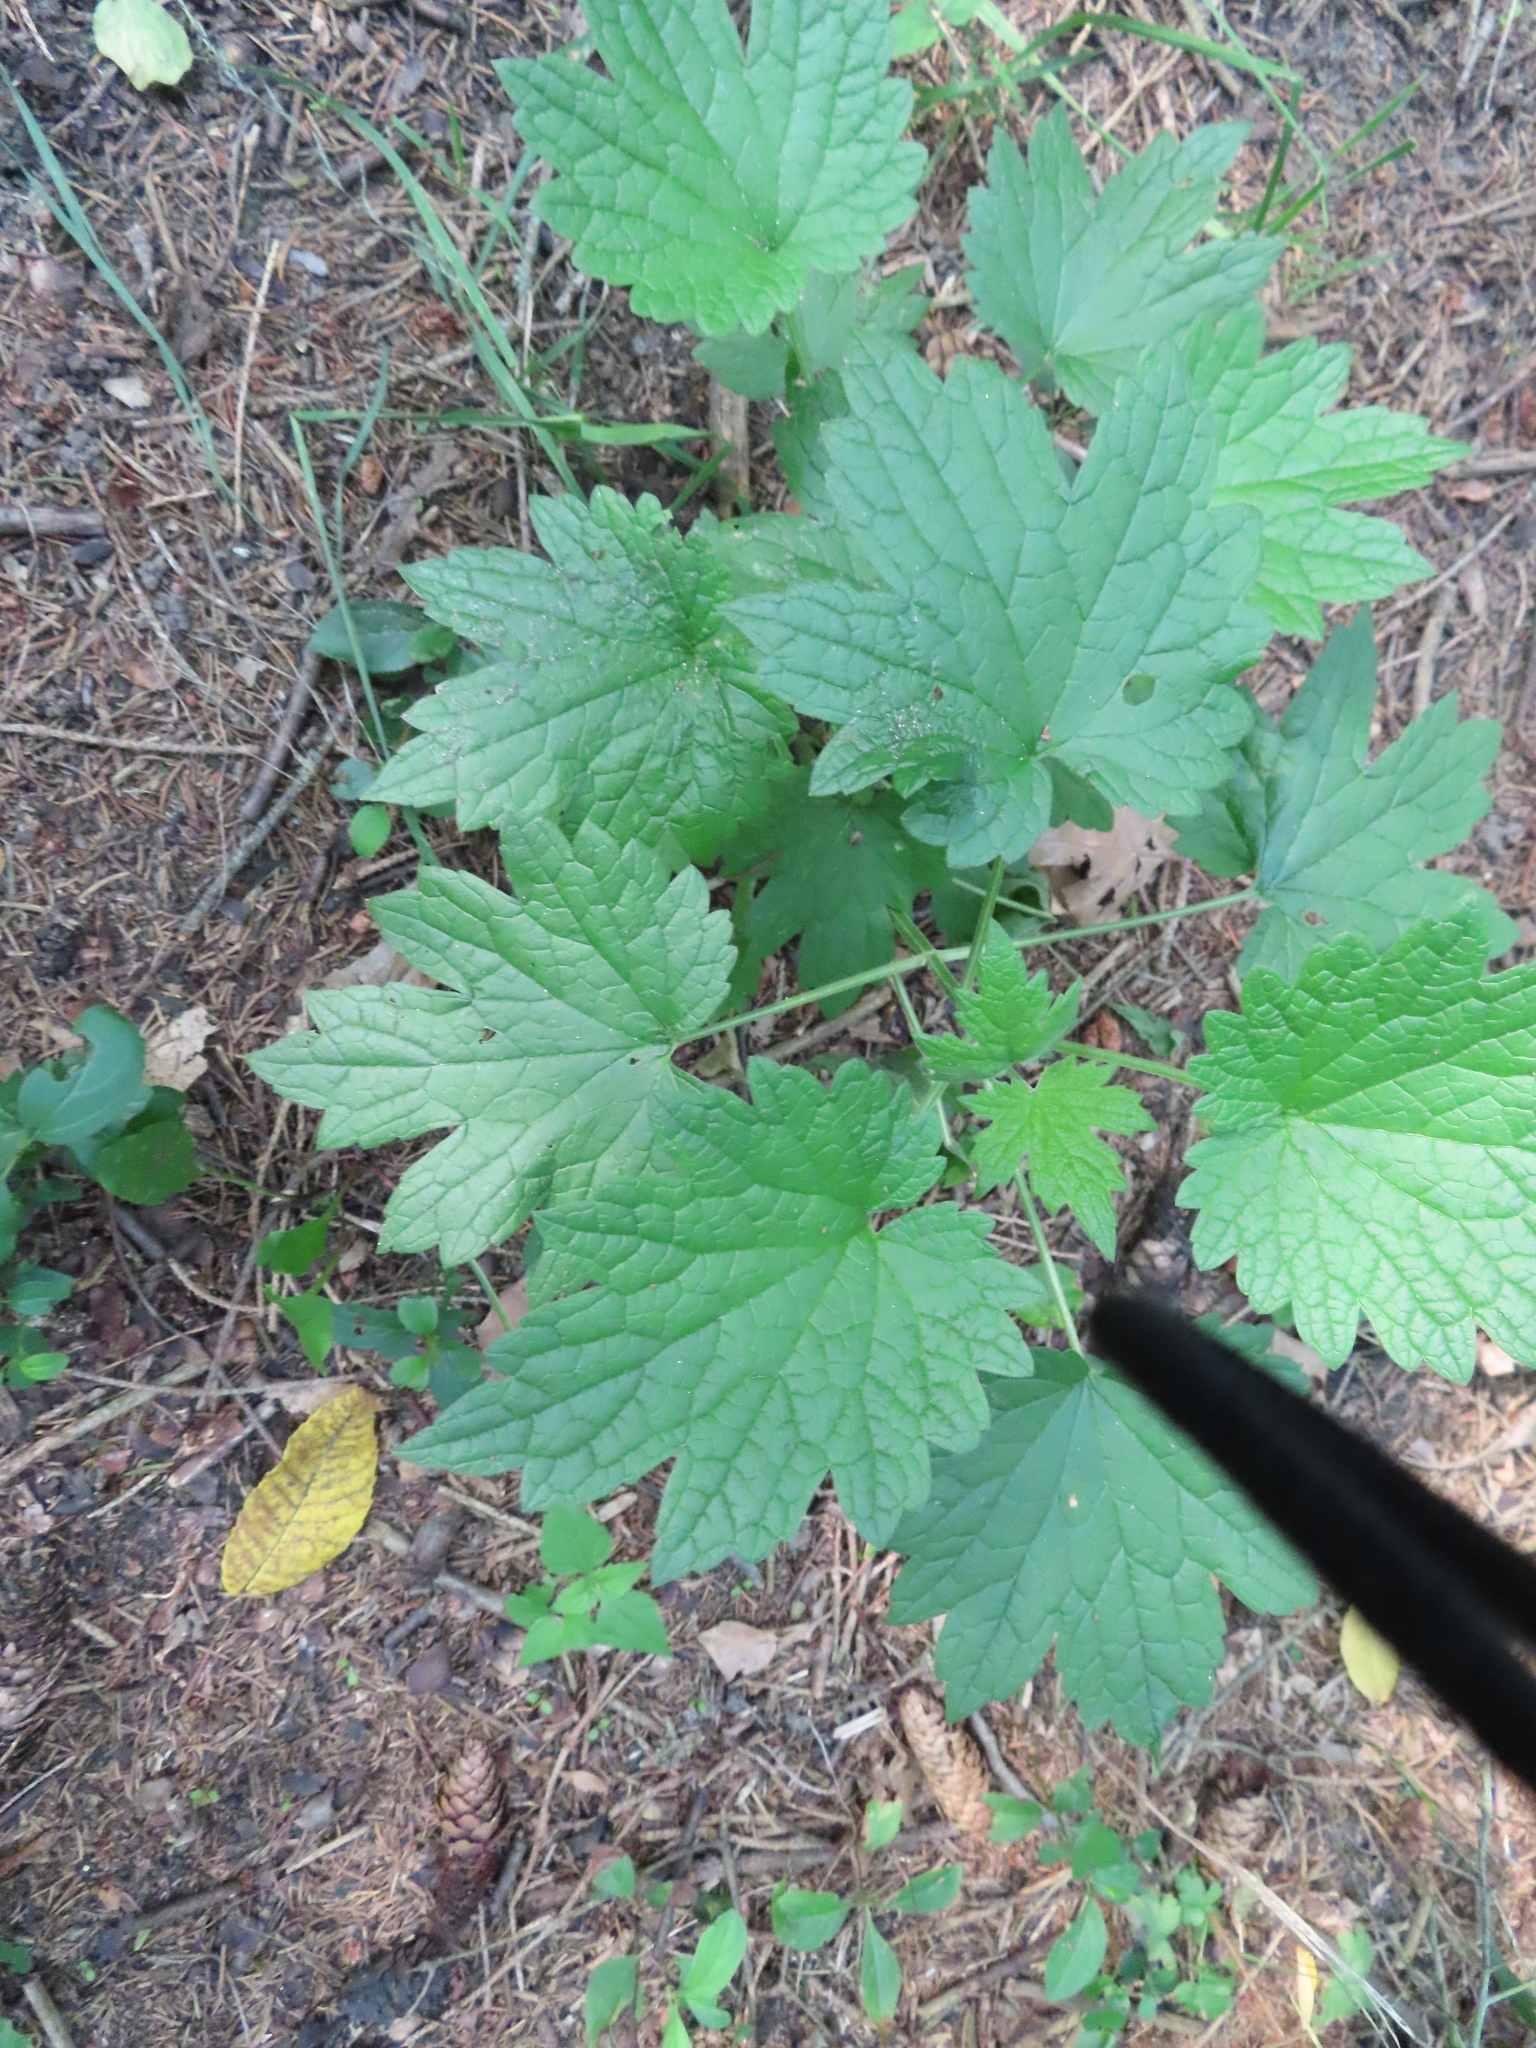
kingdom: Plantae
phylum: Tracheophyta
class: Magnoliopsida
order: Lamiales
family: Lamiaceae
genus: Leonurus
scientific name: Leonurus cardiaca
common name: Motherwort
